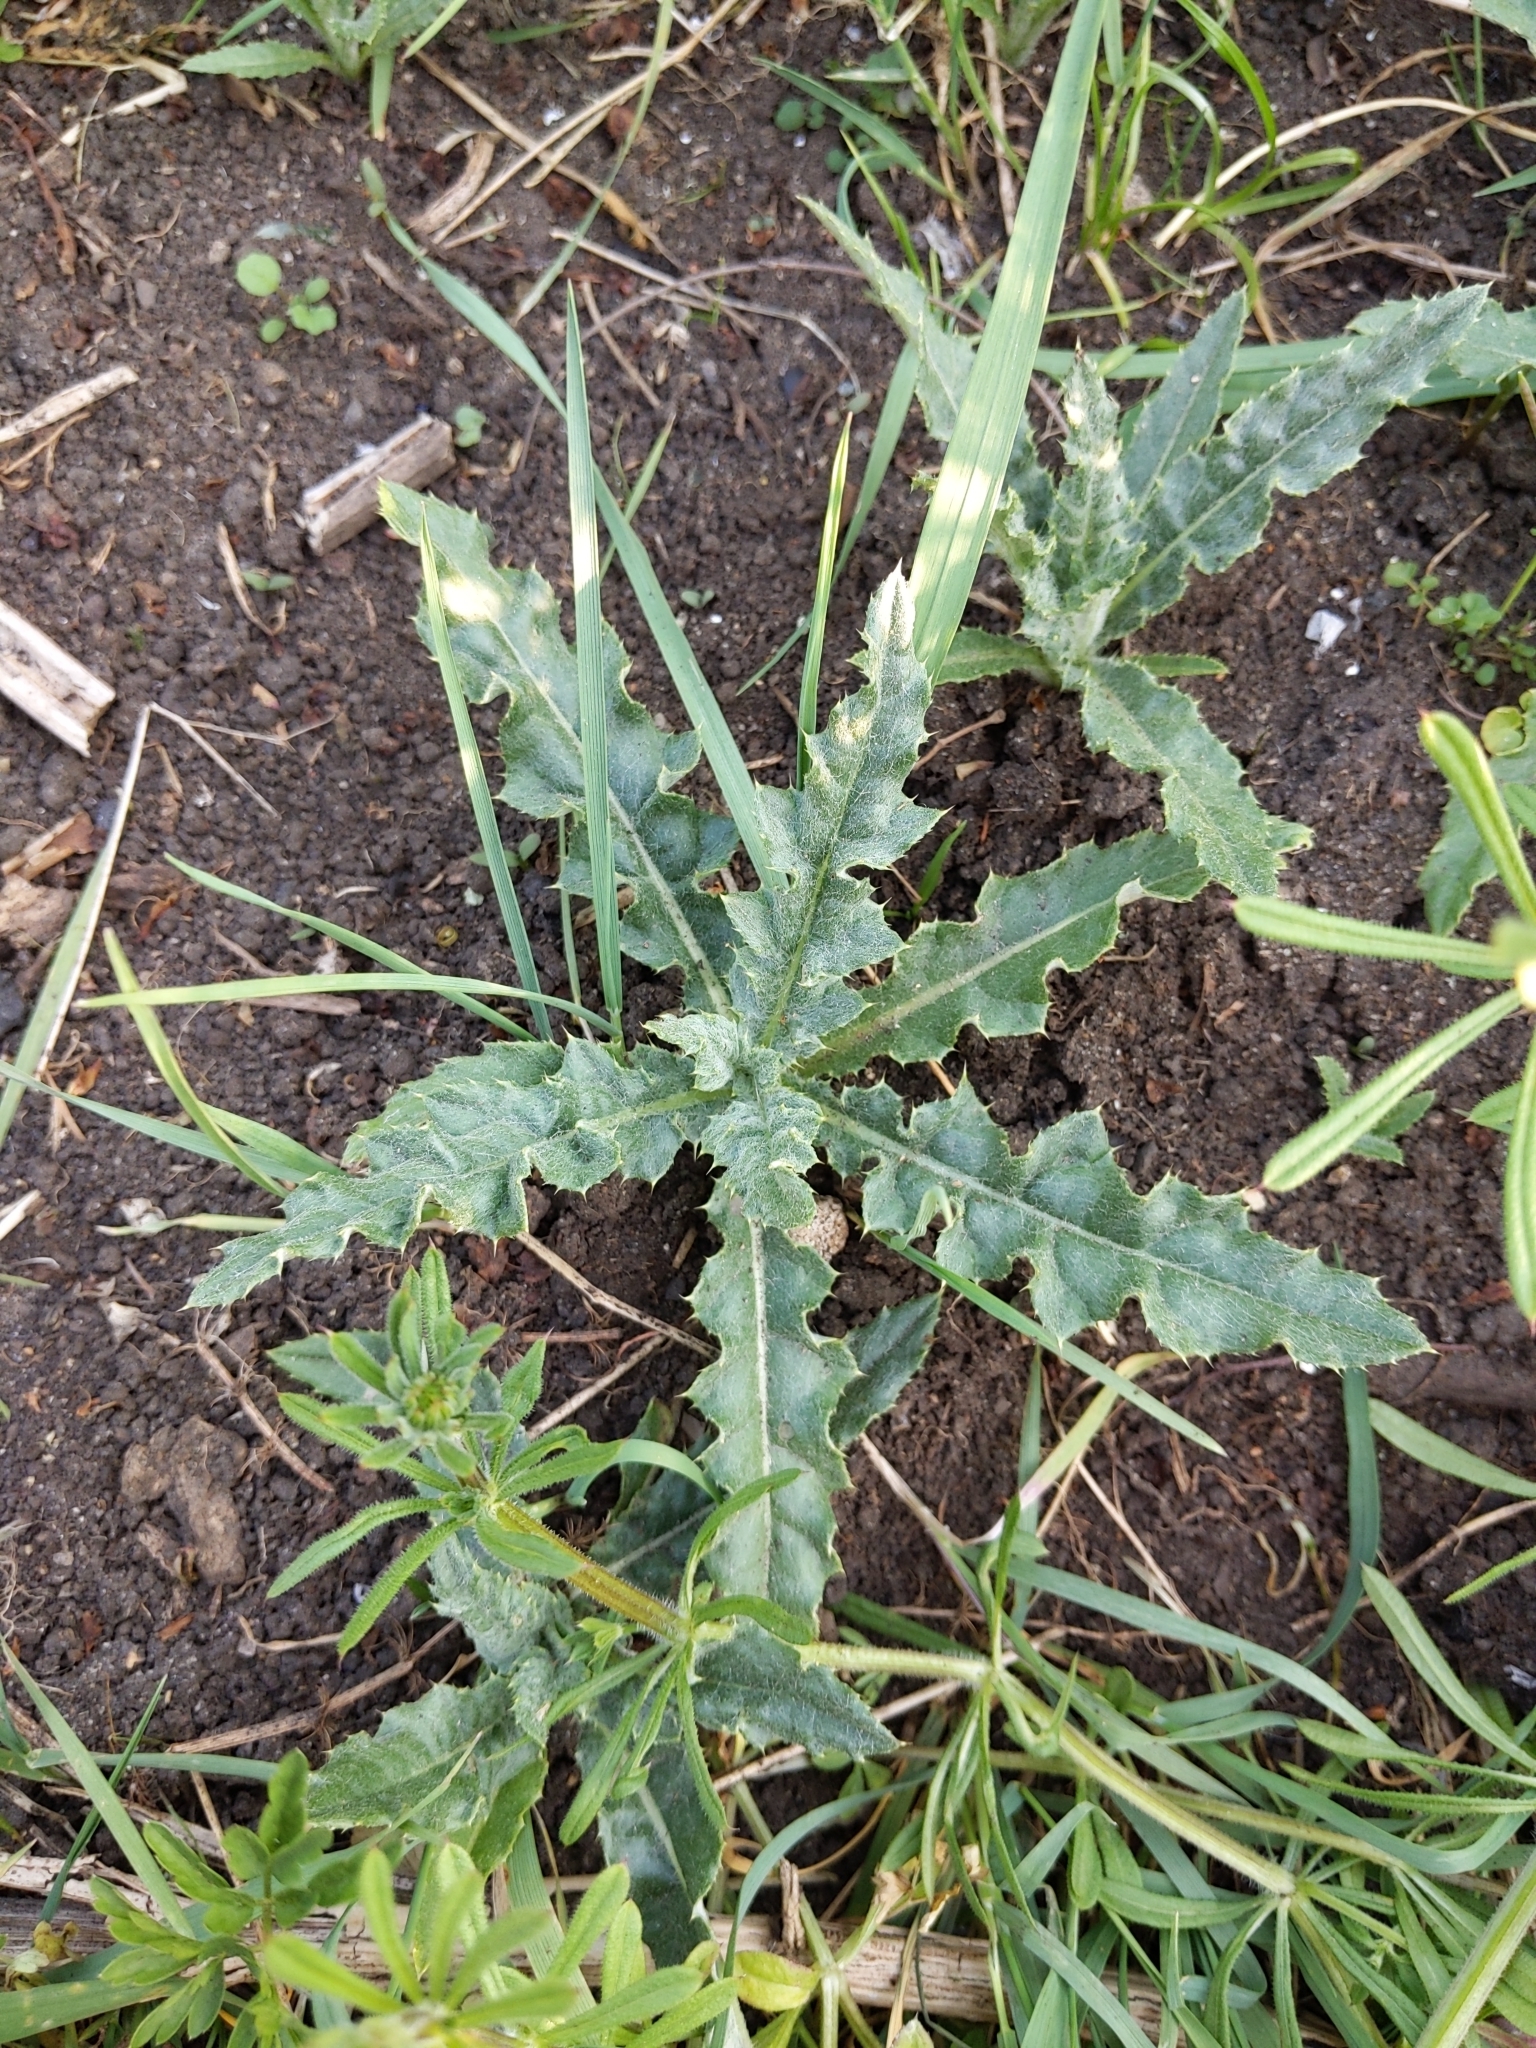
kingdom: Plantae
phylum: Tracheophyta
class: Magnoliopsida
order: Asterales
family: Asteraceae
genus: Cirsium
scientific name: Cirsium arvense
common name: Creeping thistle
